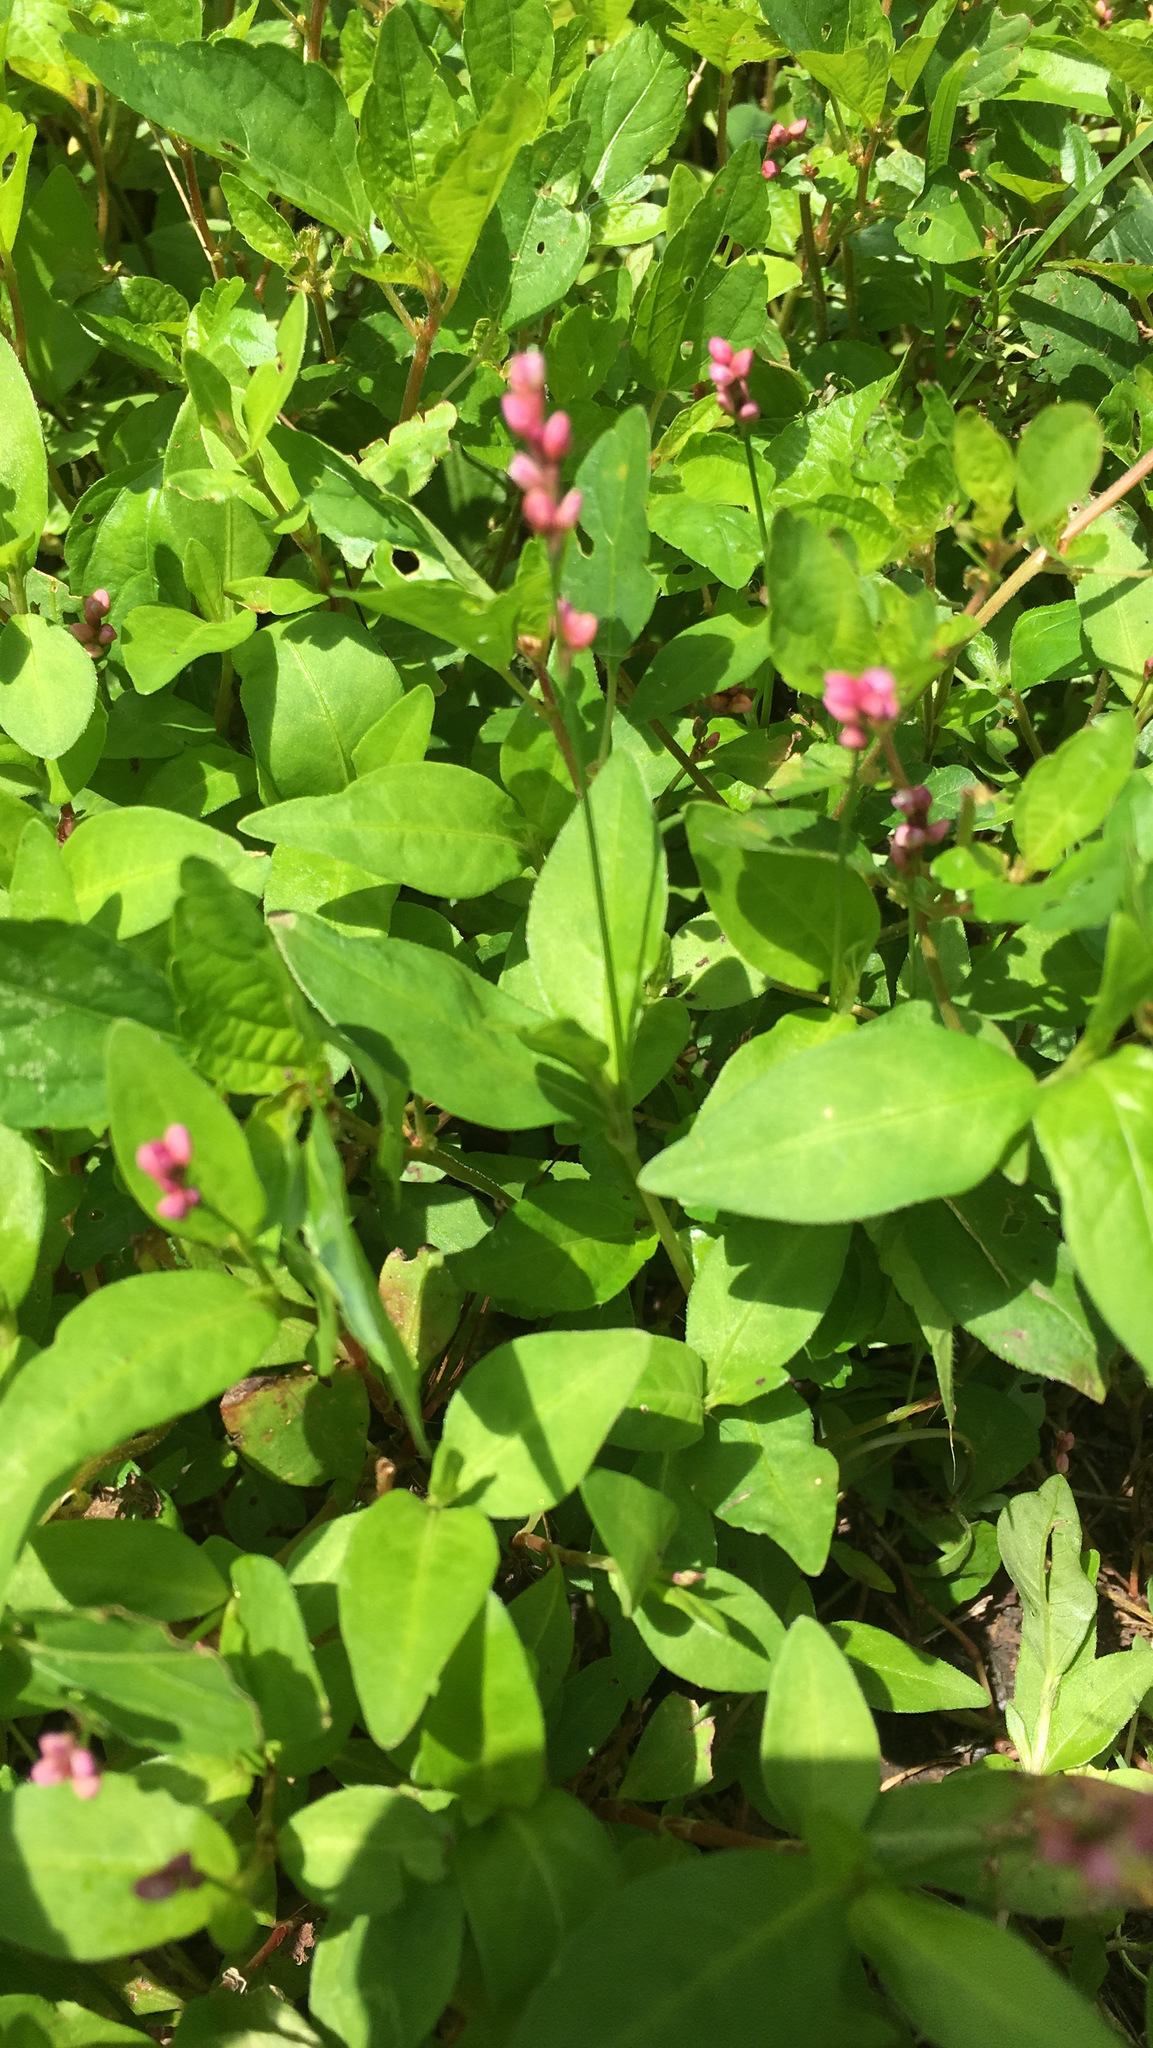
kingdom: Plantae
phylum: Tracheophyta
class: Magnoliopsida
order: Caryophyllales
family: Polygonaceae
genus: Persicaria
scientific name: Persicaria longiseta
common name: Bristly lady's-thumb
